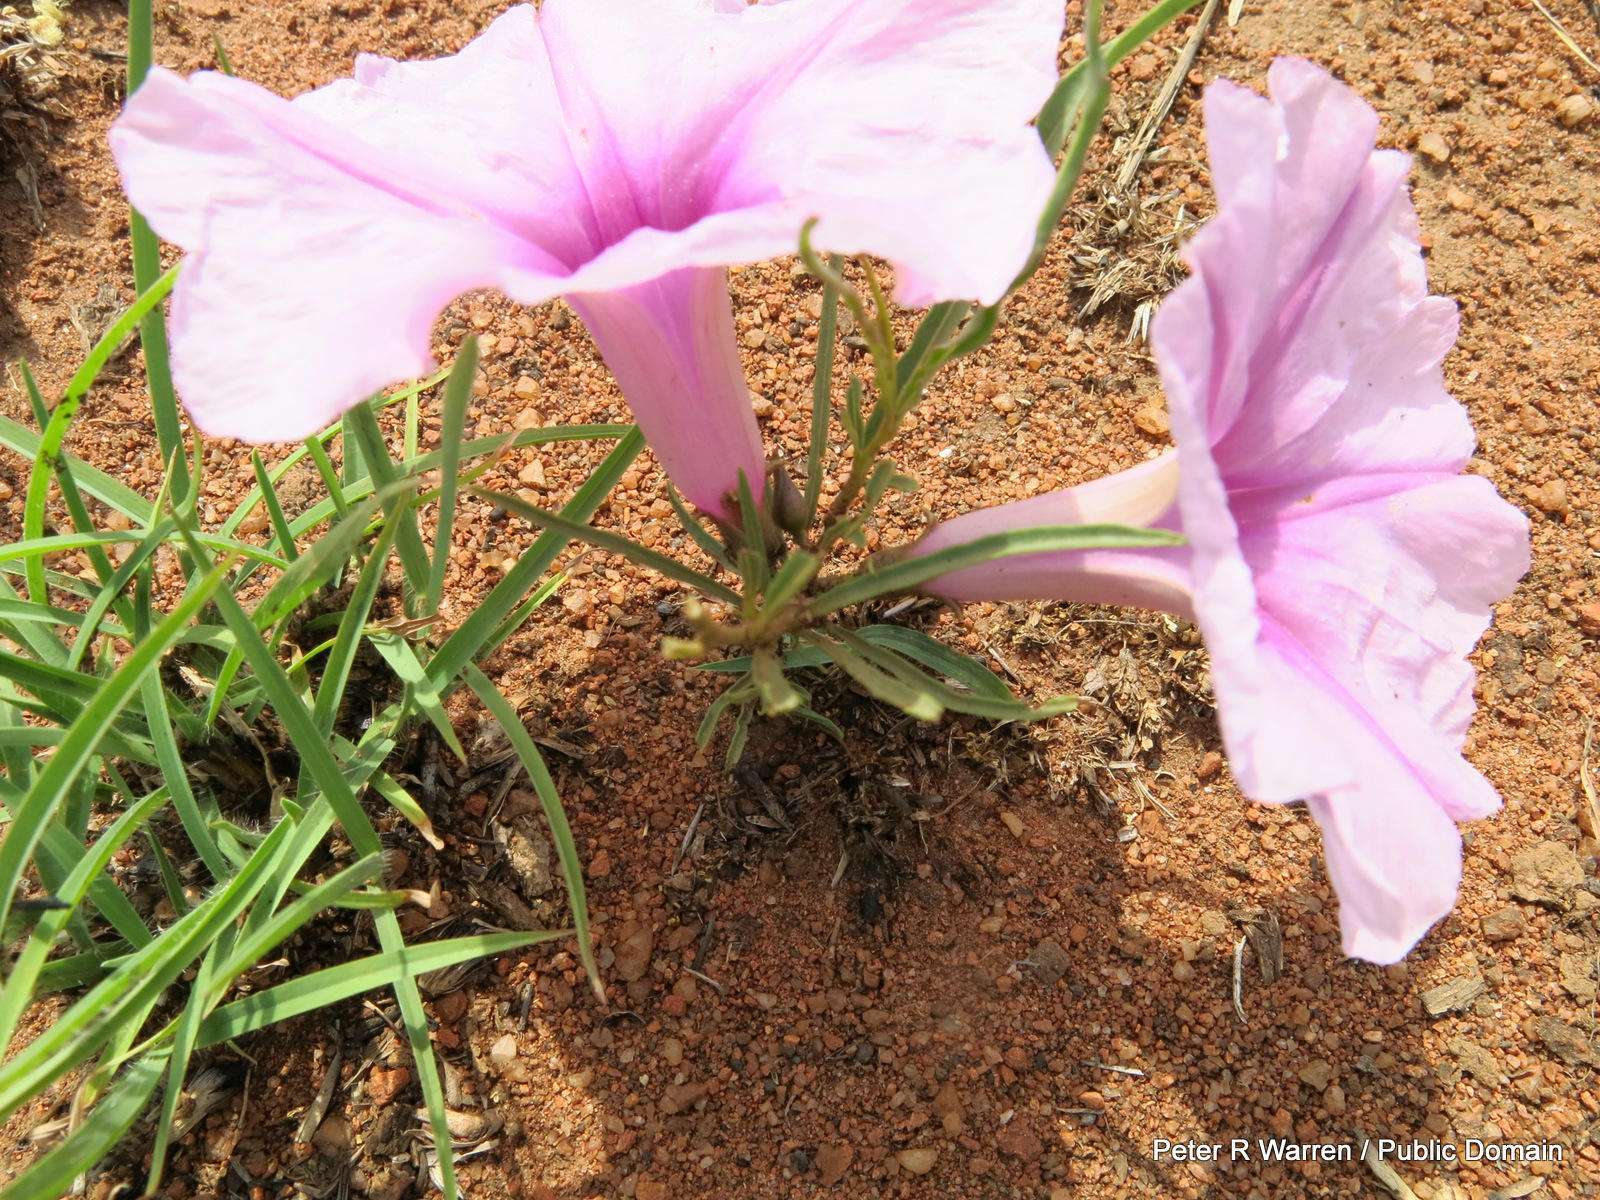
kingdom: Plantae
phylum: Tracheophyta
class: Magnoliopsida
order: Solanales
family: Convolvulaceae
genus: Ipomoea
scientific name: Ipomoea bolusiana
